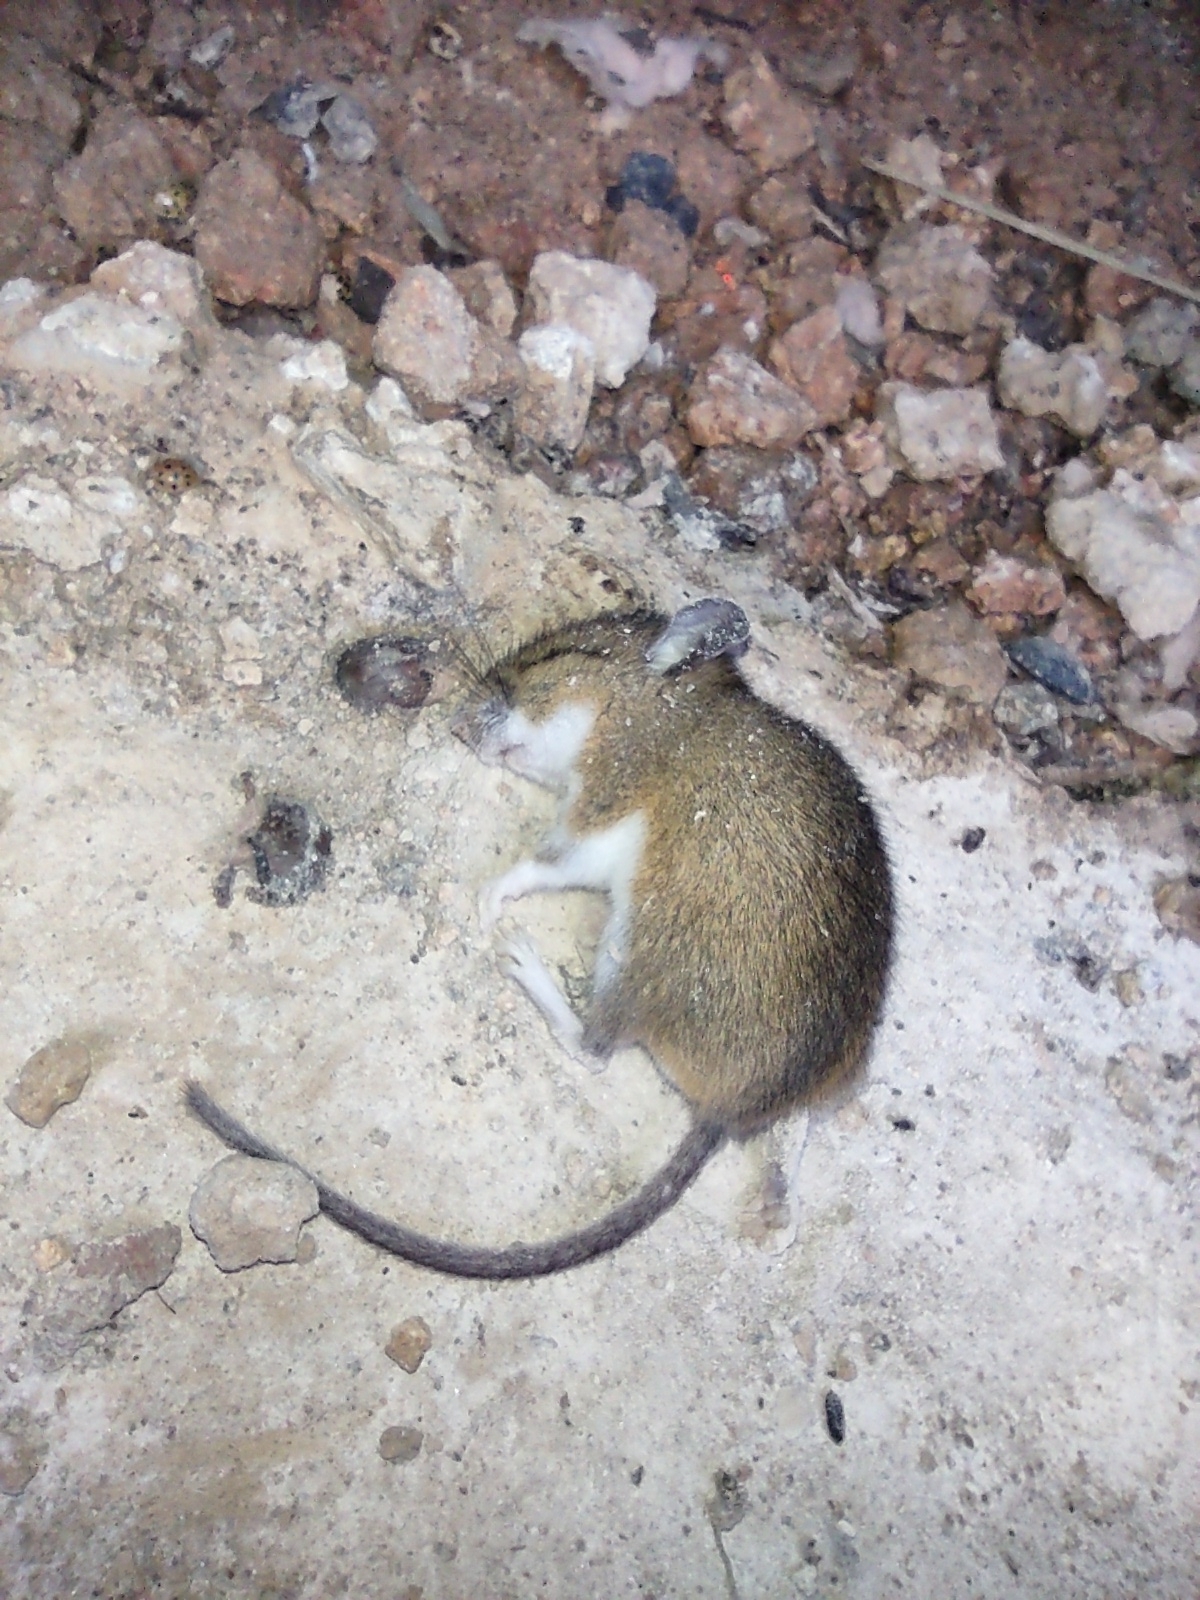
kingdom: Animalia
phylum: Chordata
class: Mammalia
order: Rodentia
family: Cricetidae
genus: Peromyscus
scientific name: Peromyscus leucopus
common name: White-footed deermouse
